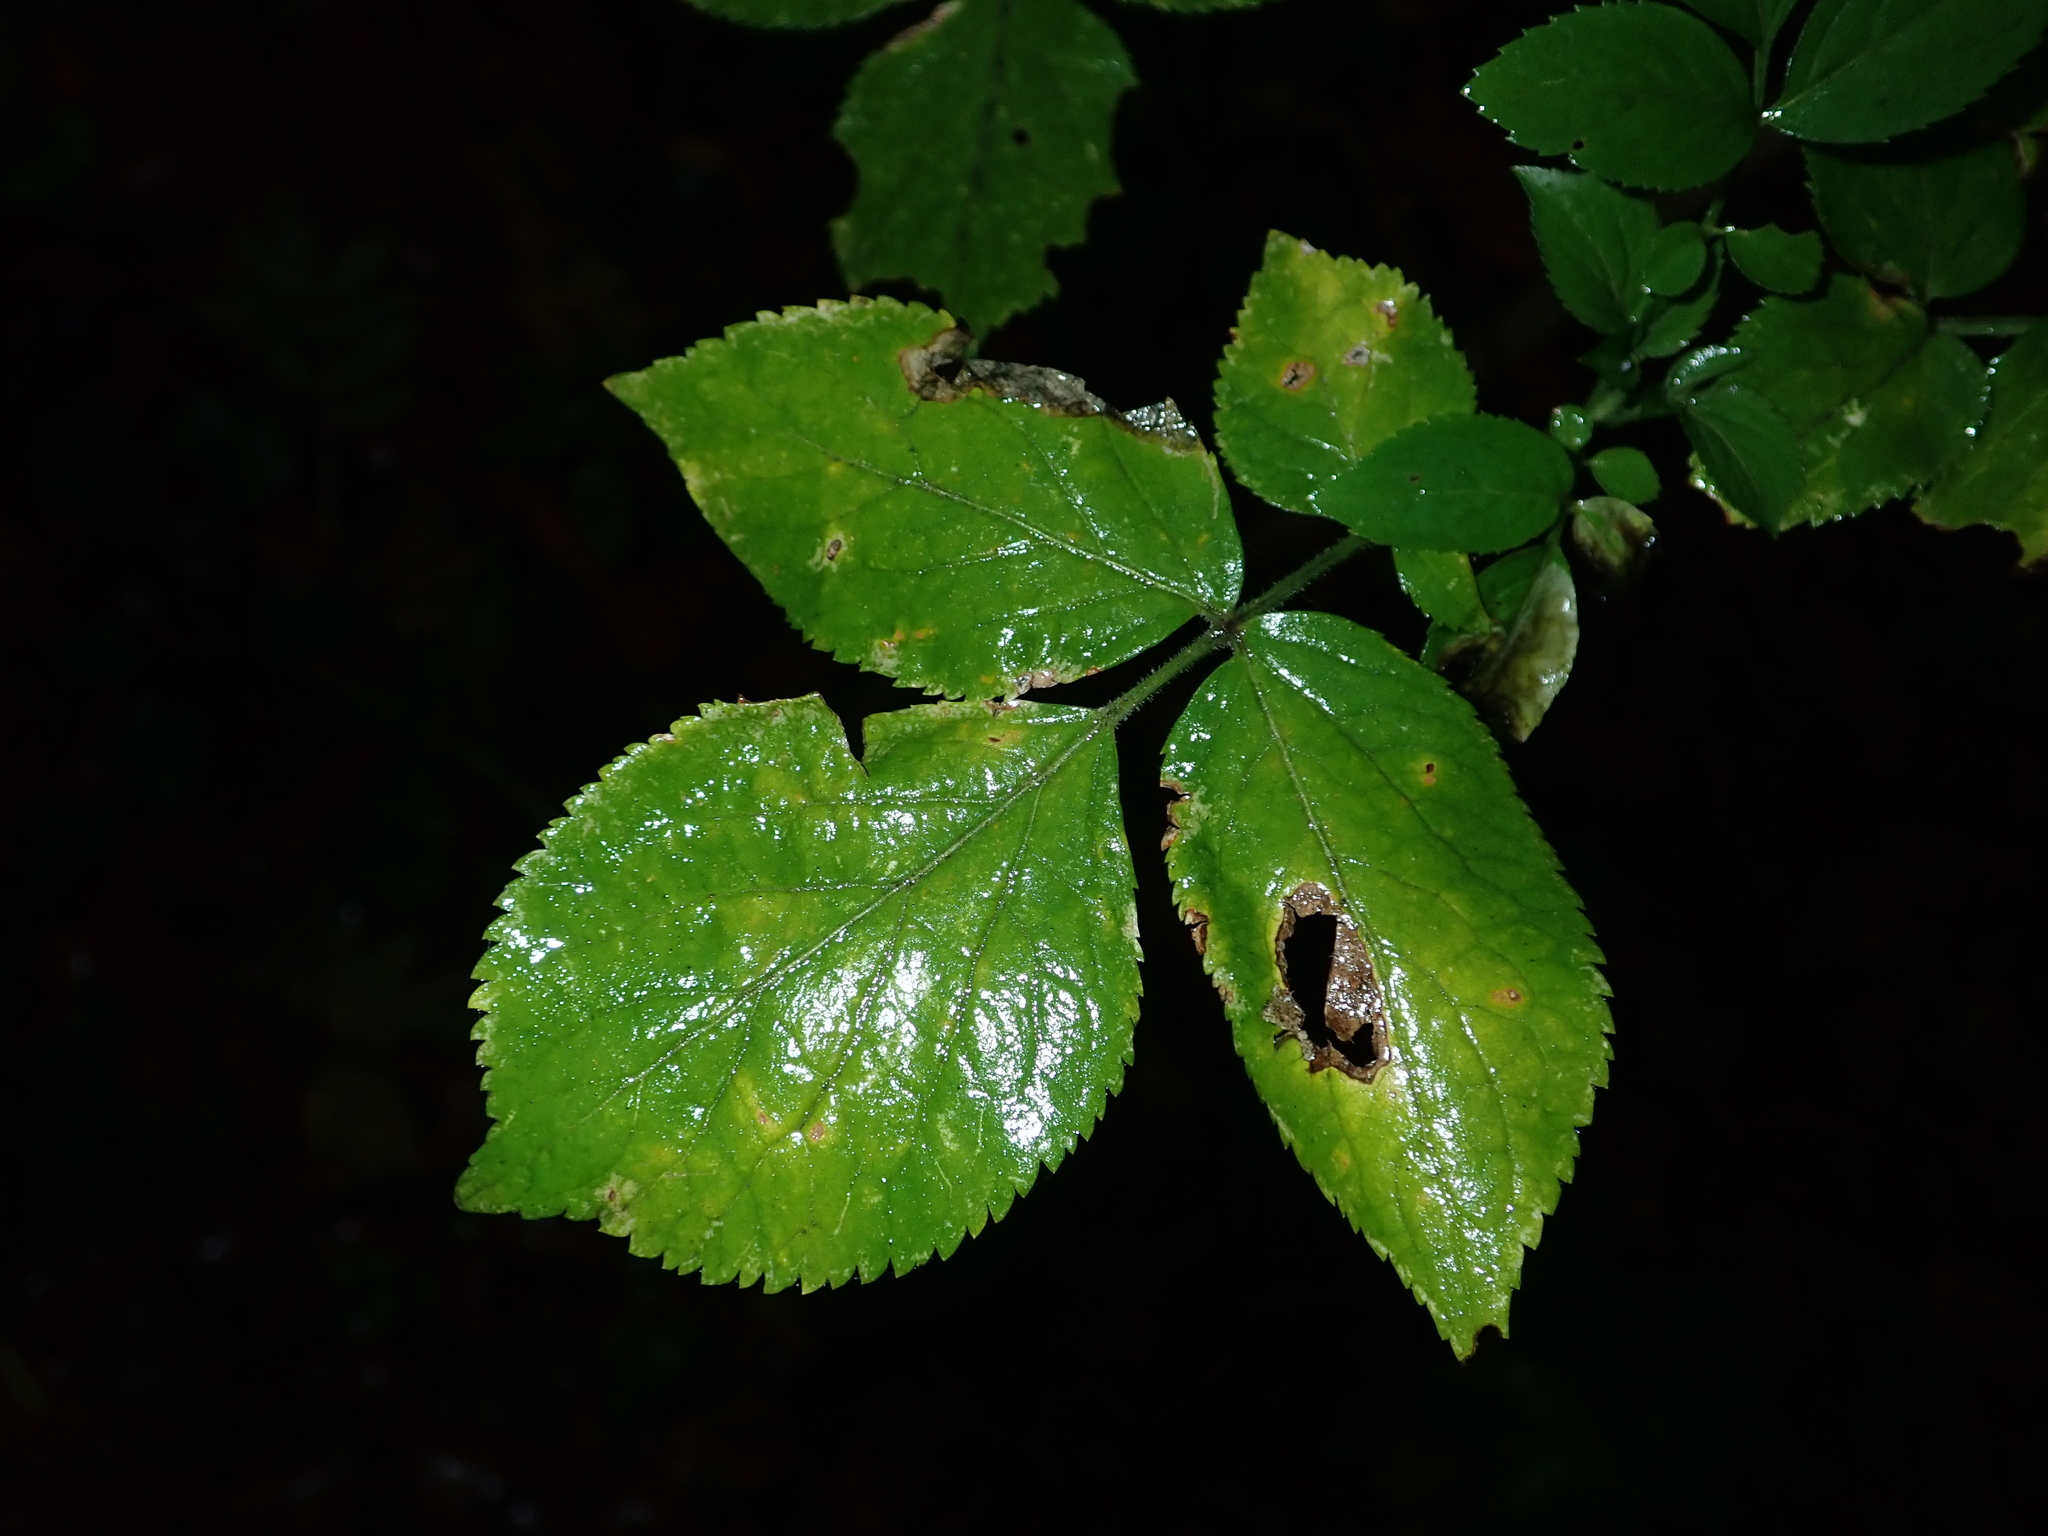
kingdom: Plantae
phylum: Tracheophyta
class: Magnoliopsida
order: Dipsacales
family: Viburnaceae
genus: Sambucus
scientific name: Sambucus nigra
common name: Elder
